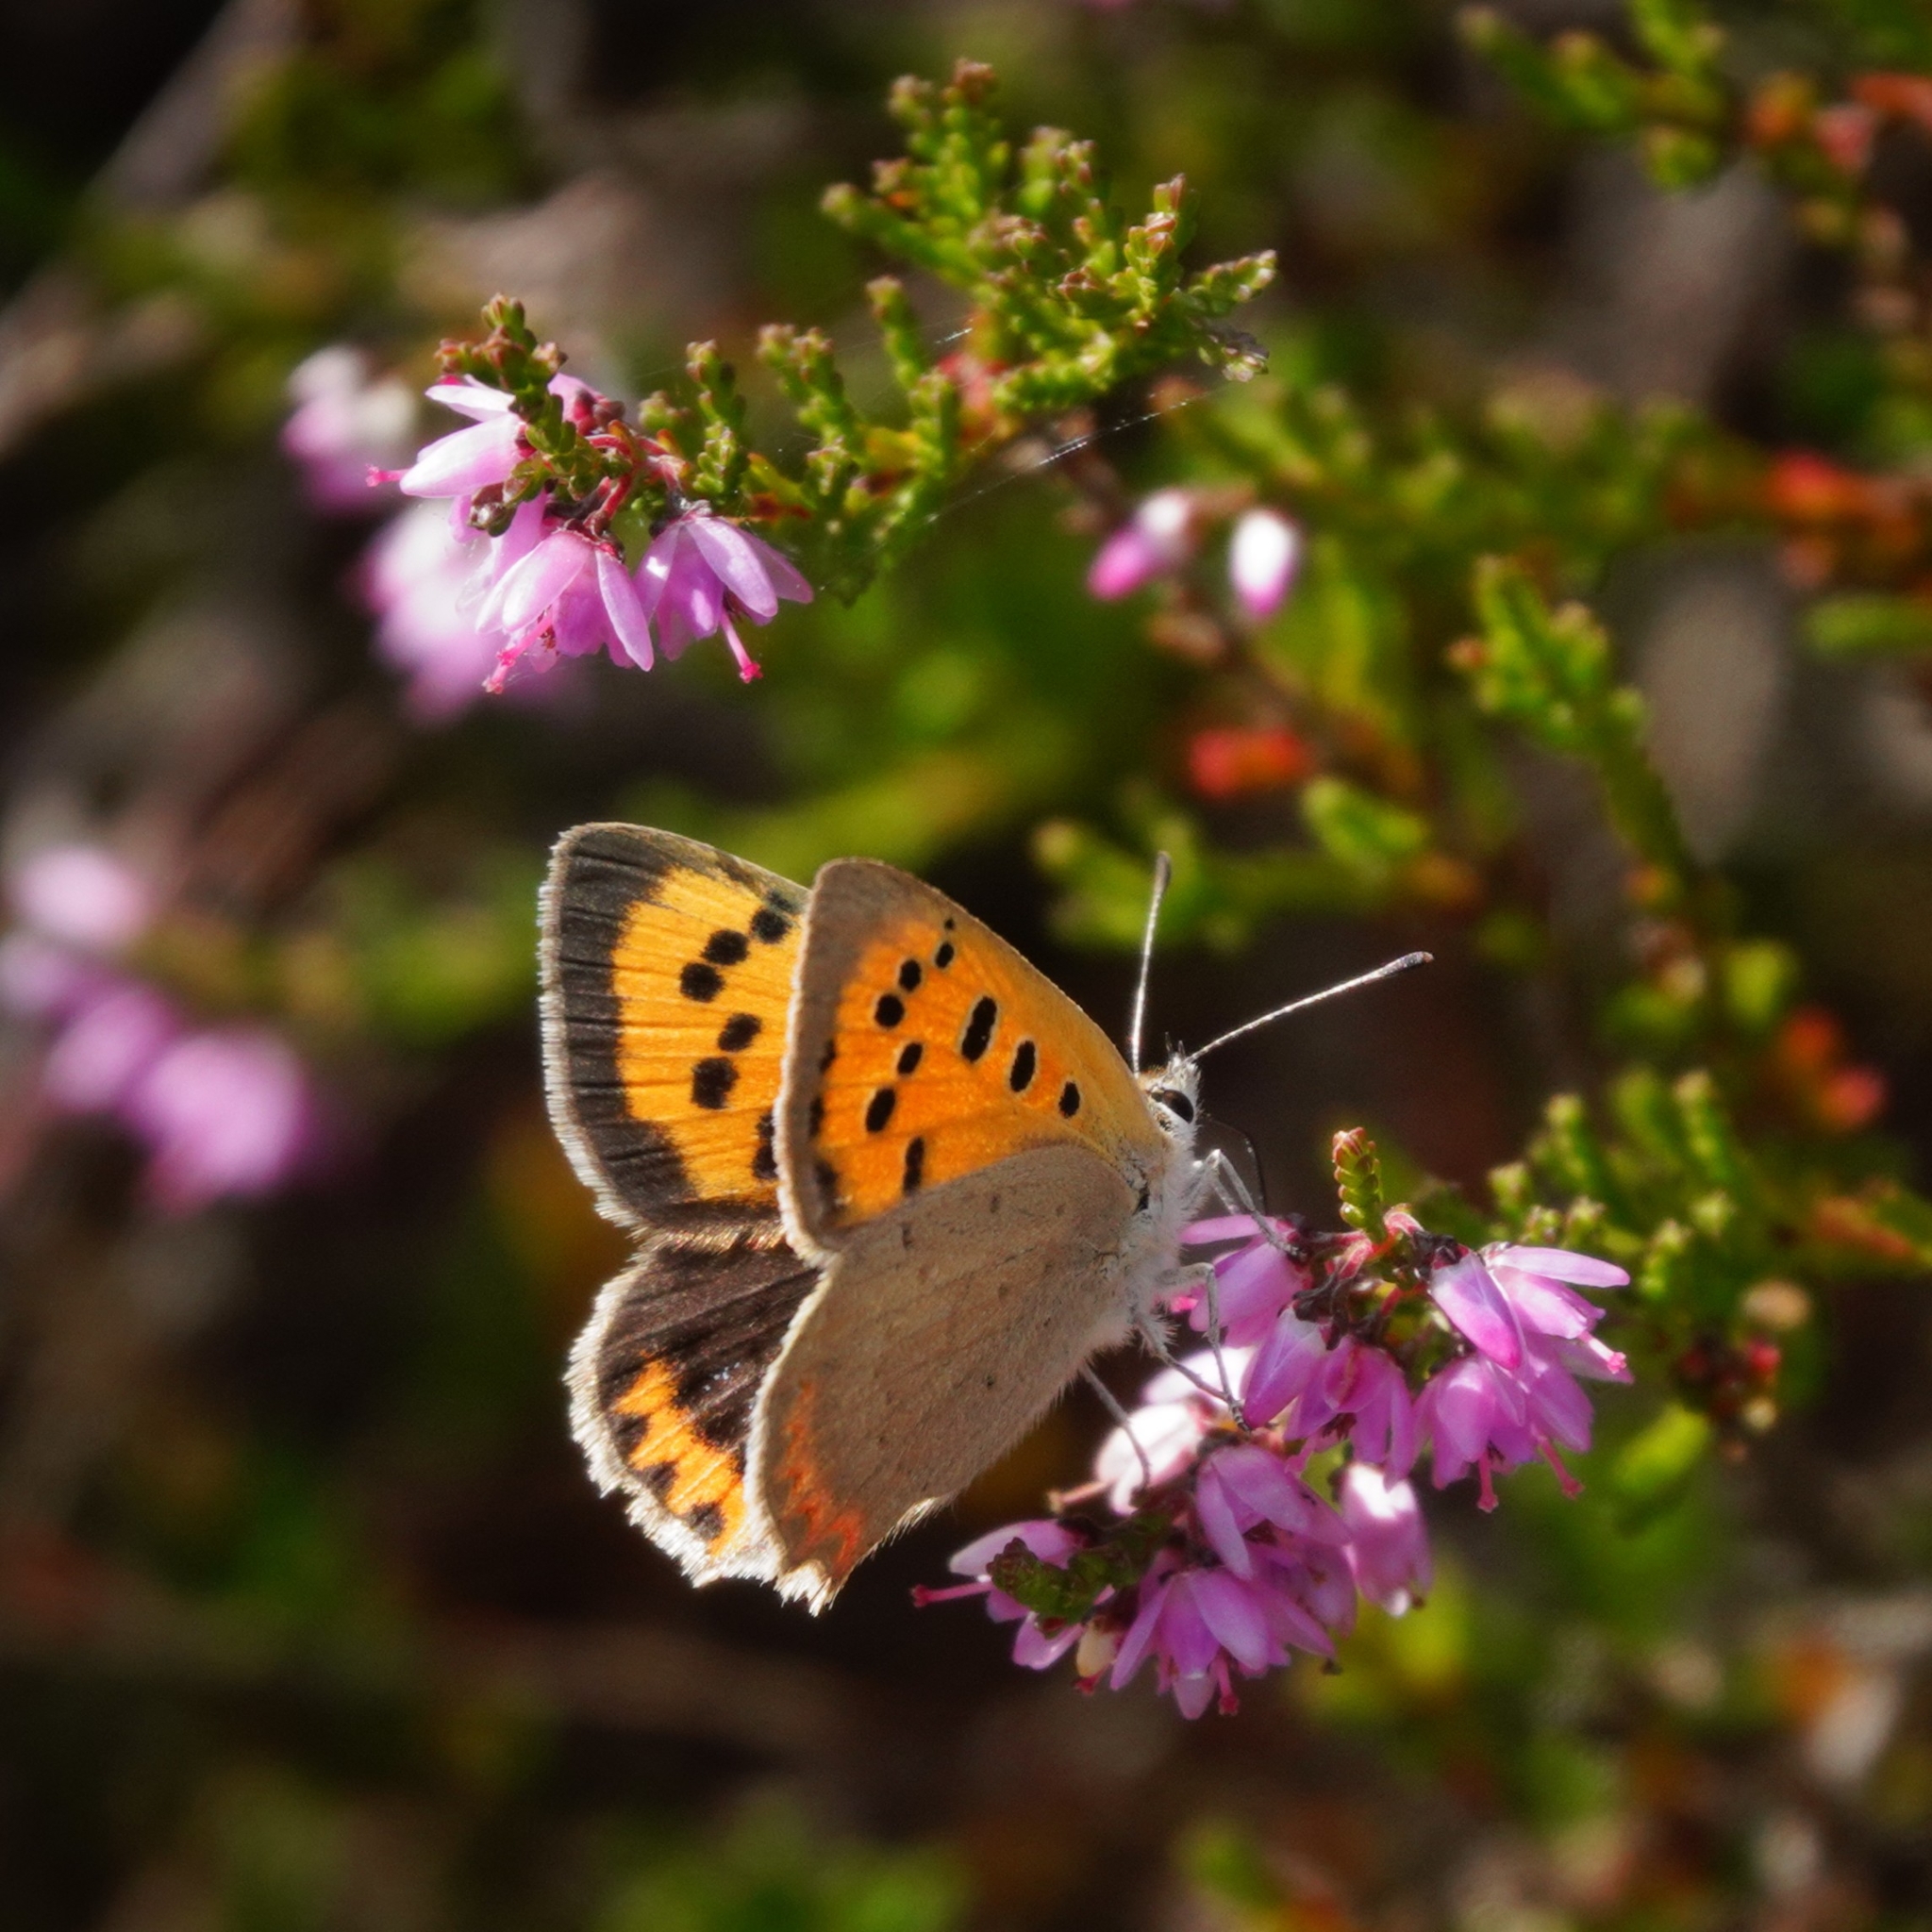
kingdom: Animalia
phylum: Arthropoda
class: Insecta
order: Lepidoptera
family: Lycaenidae
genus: Lycaena
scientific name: Lycaena phlaeas
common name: Small copper
